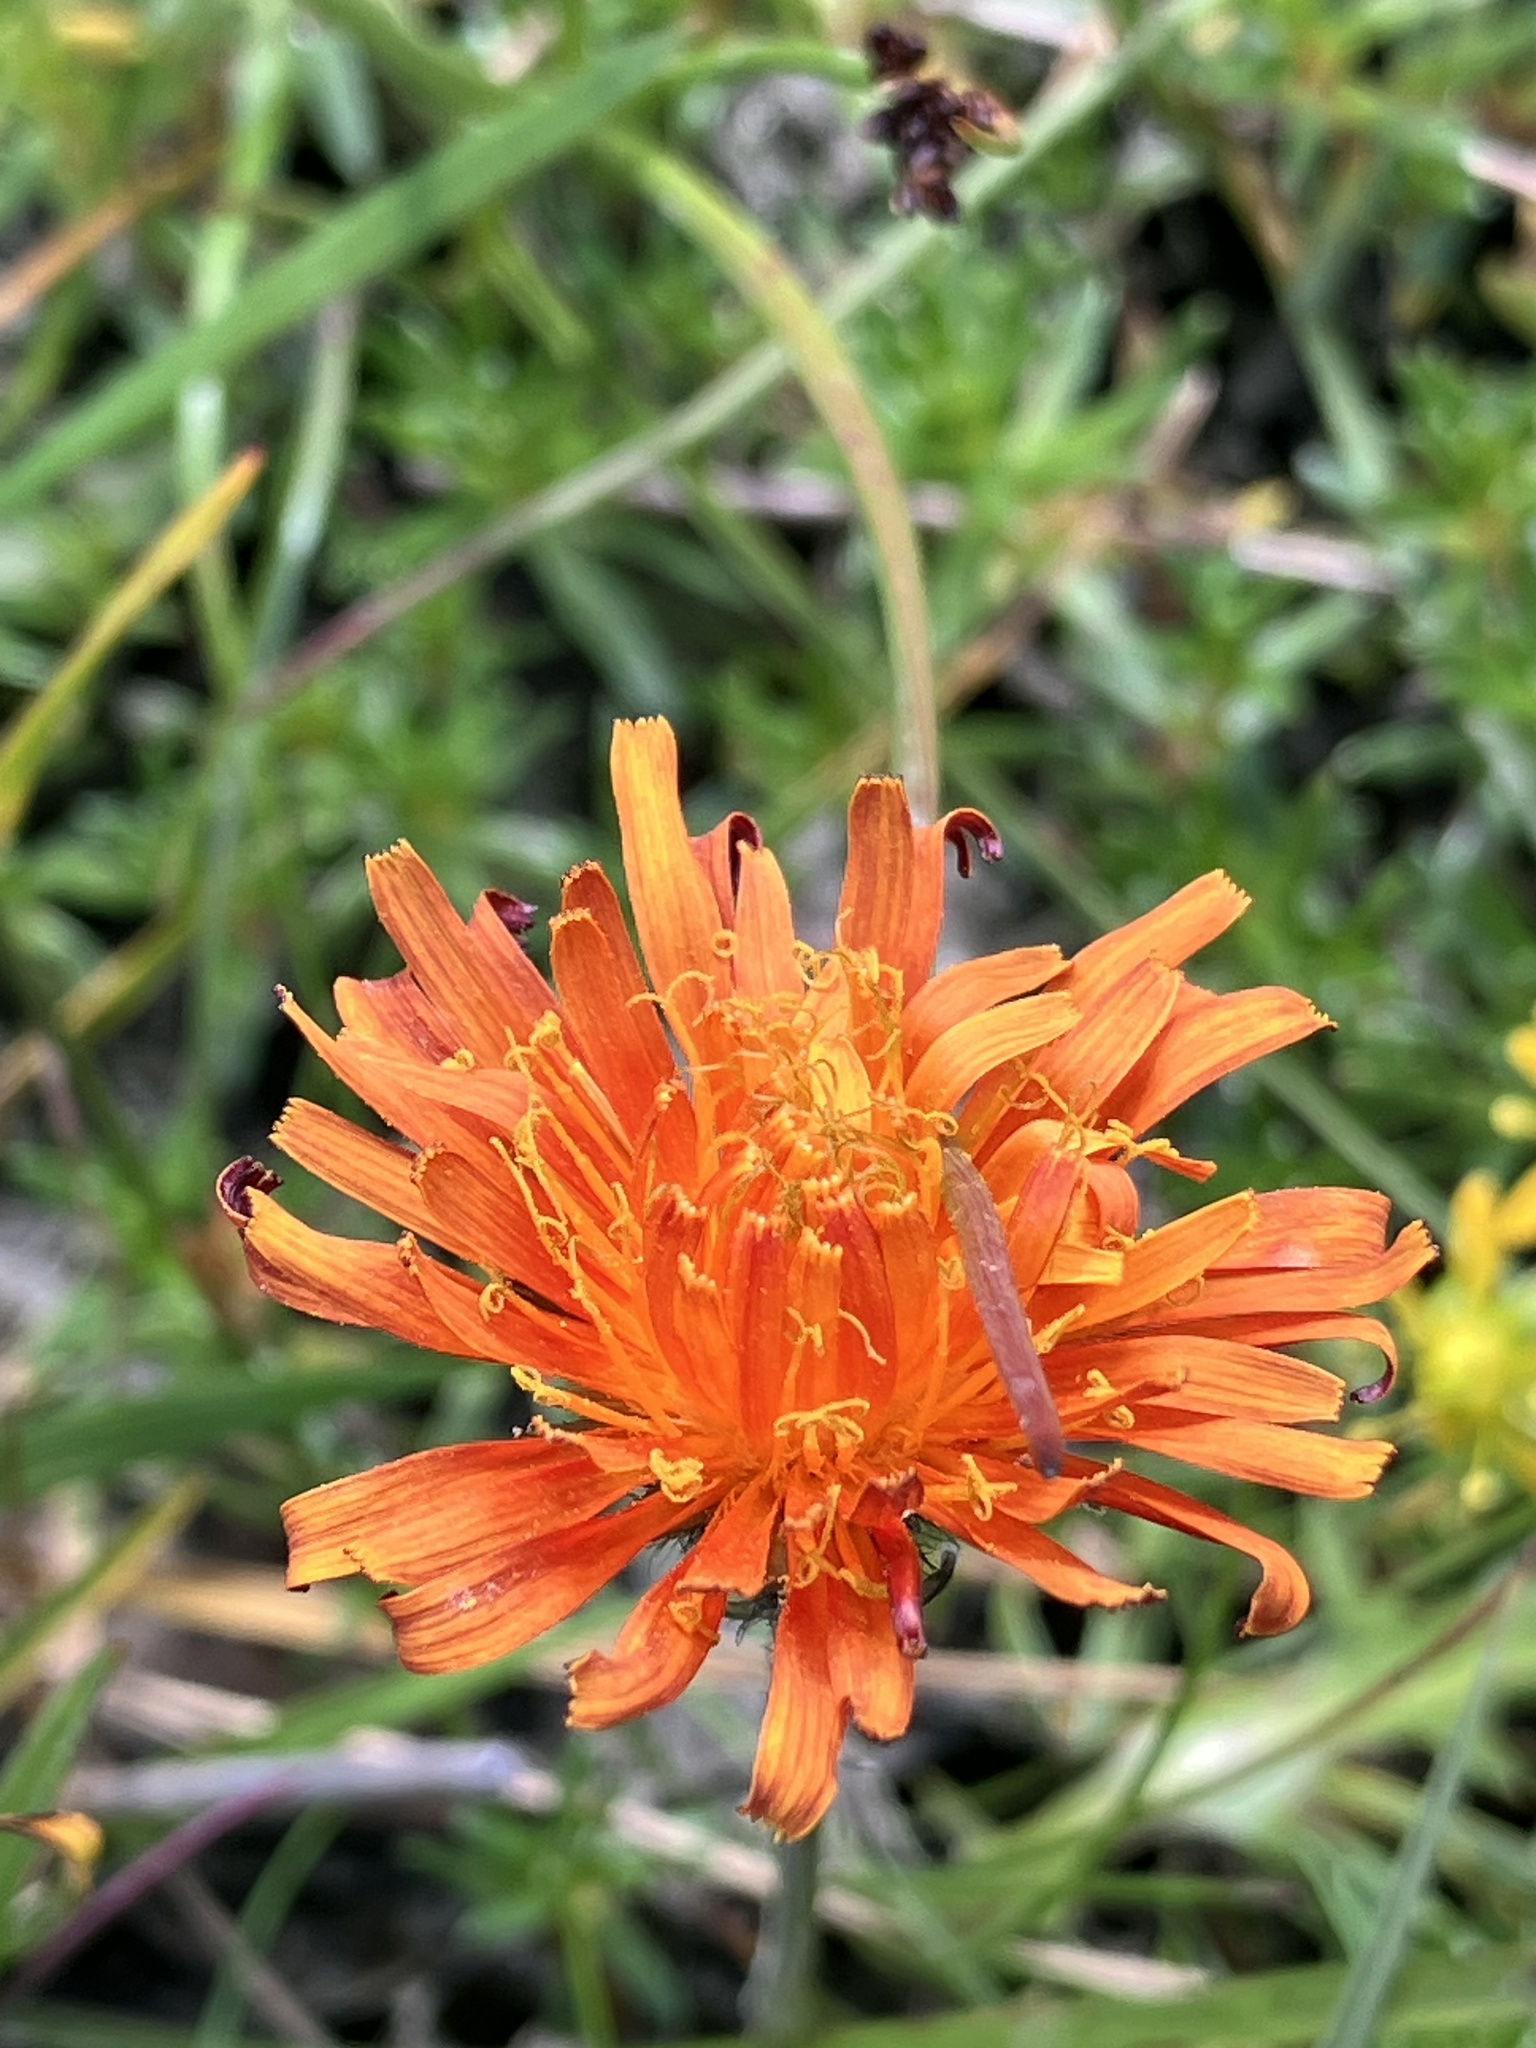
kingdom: Plantae
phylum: Tracheophyta
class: Magnoliopsida
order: Asterales
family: Asteraceae
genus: Crepis
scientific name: Crepis aurea
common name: Golden hawk's-beard
